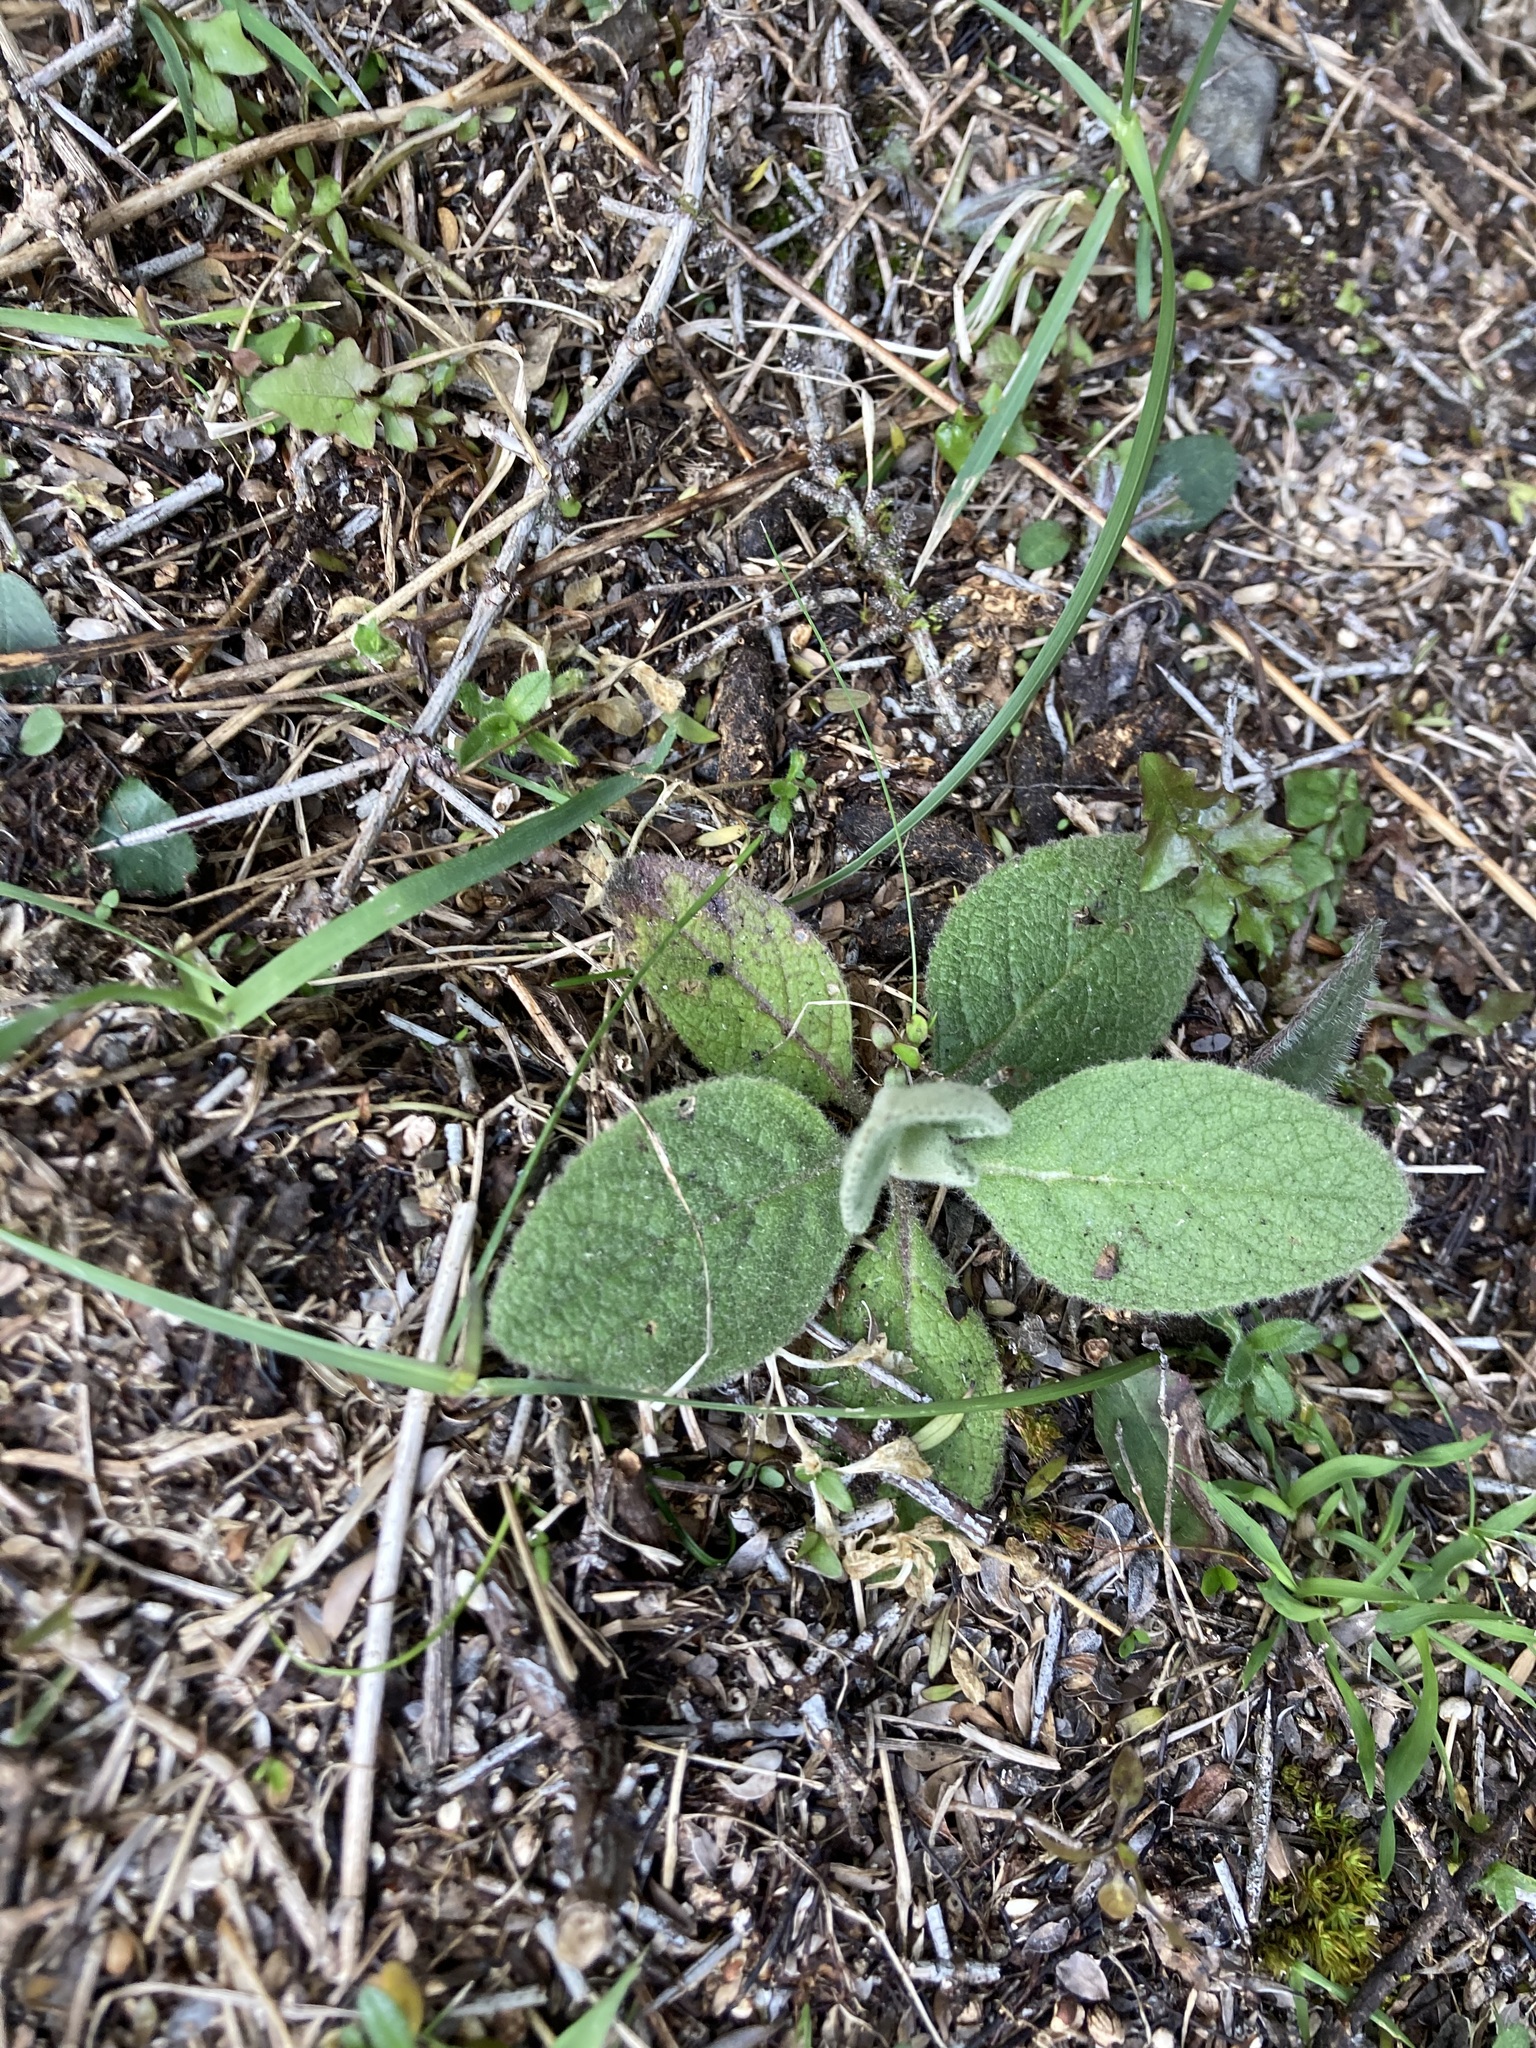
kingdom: Plantae
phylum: Tracheophyta
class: Magnoliopsida
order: Asterales
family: Asteraceae
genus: Brachyglottis
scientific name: Brachyglottis lagopus
